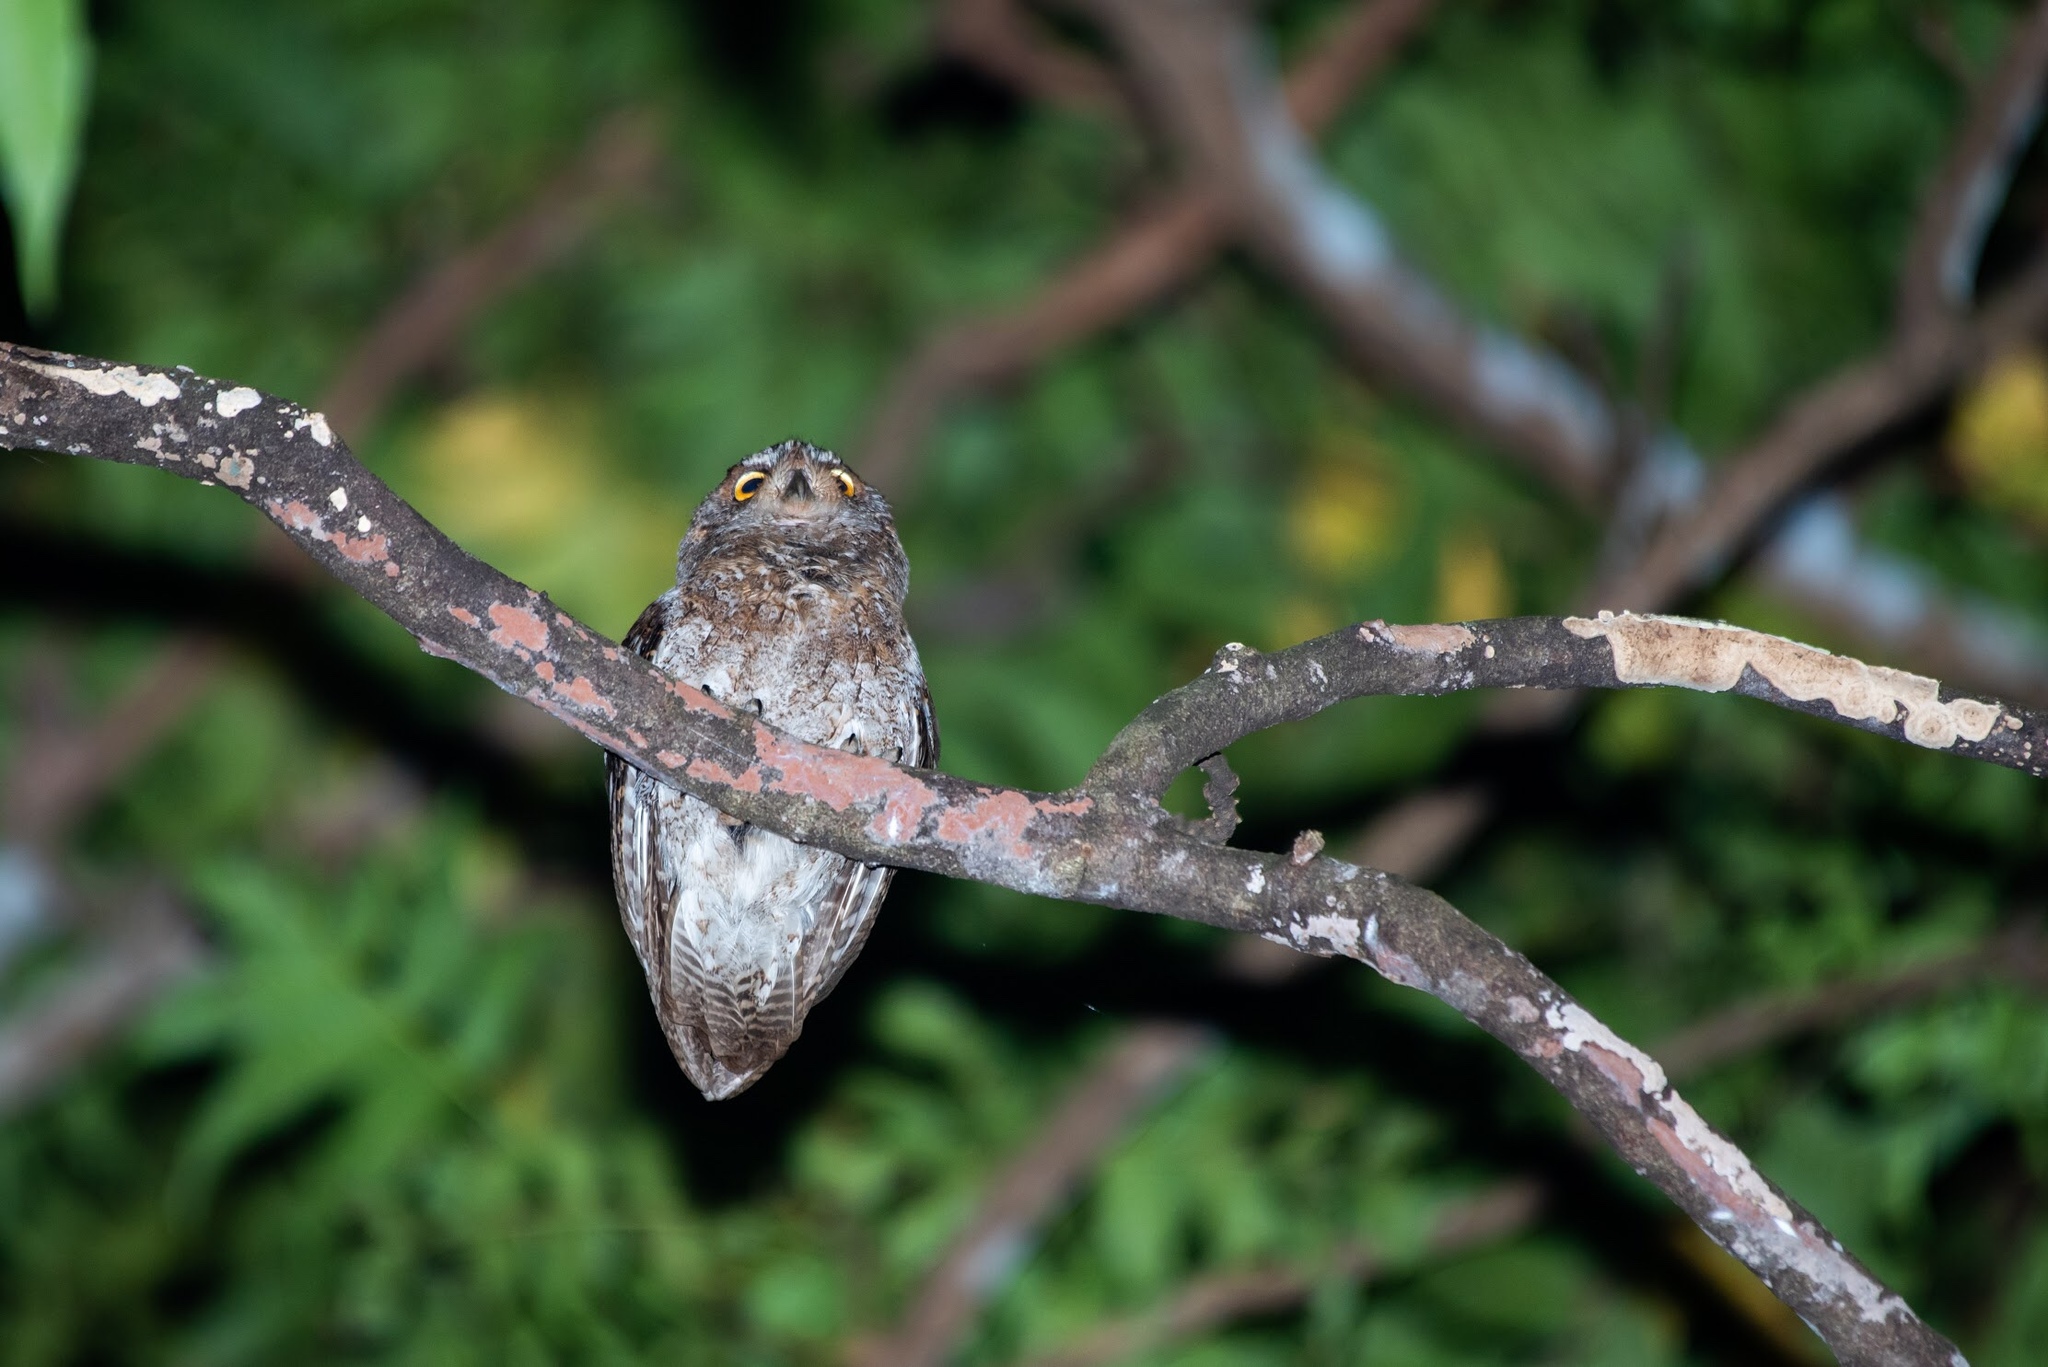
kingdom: Animalia
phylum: Chordata
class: Aves
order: Strigiformes
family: Strigidae
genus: Otus
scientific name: Otus elegans
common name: Ryukyu scops owl
